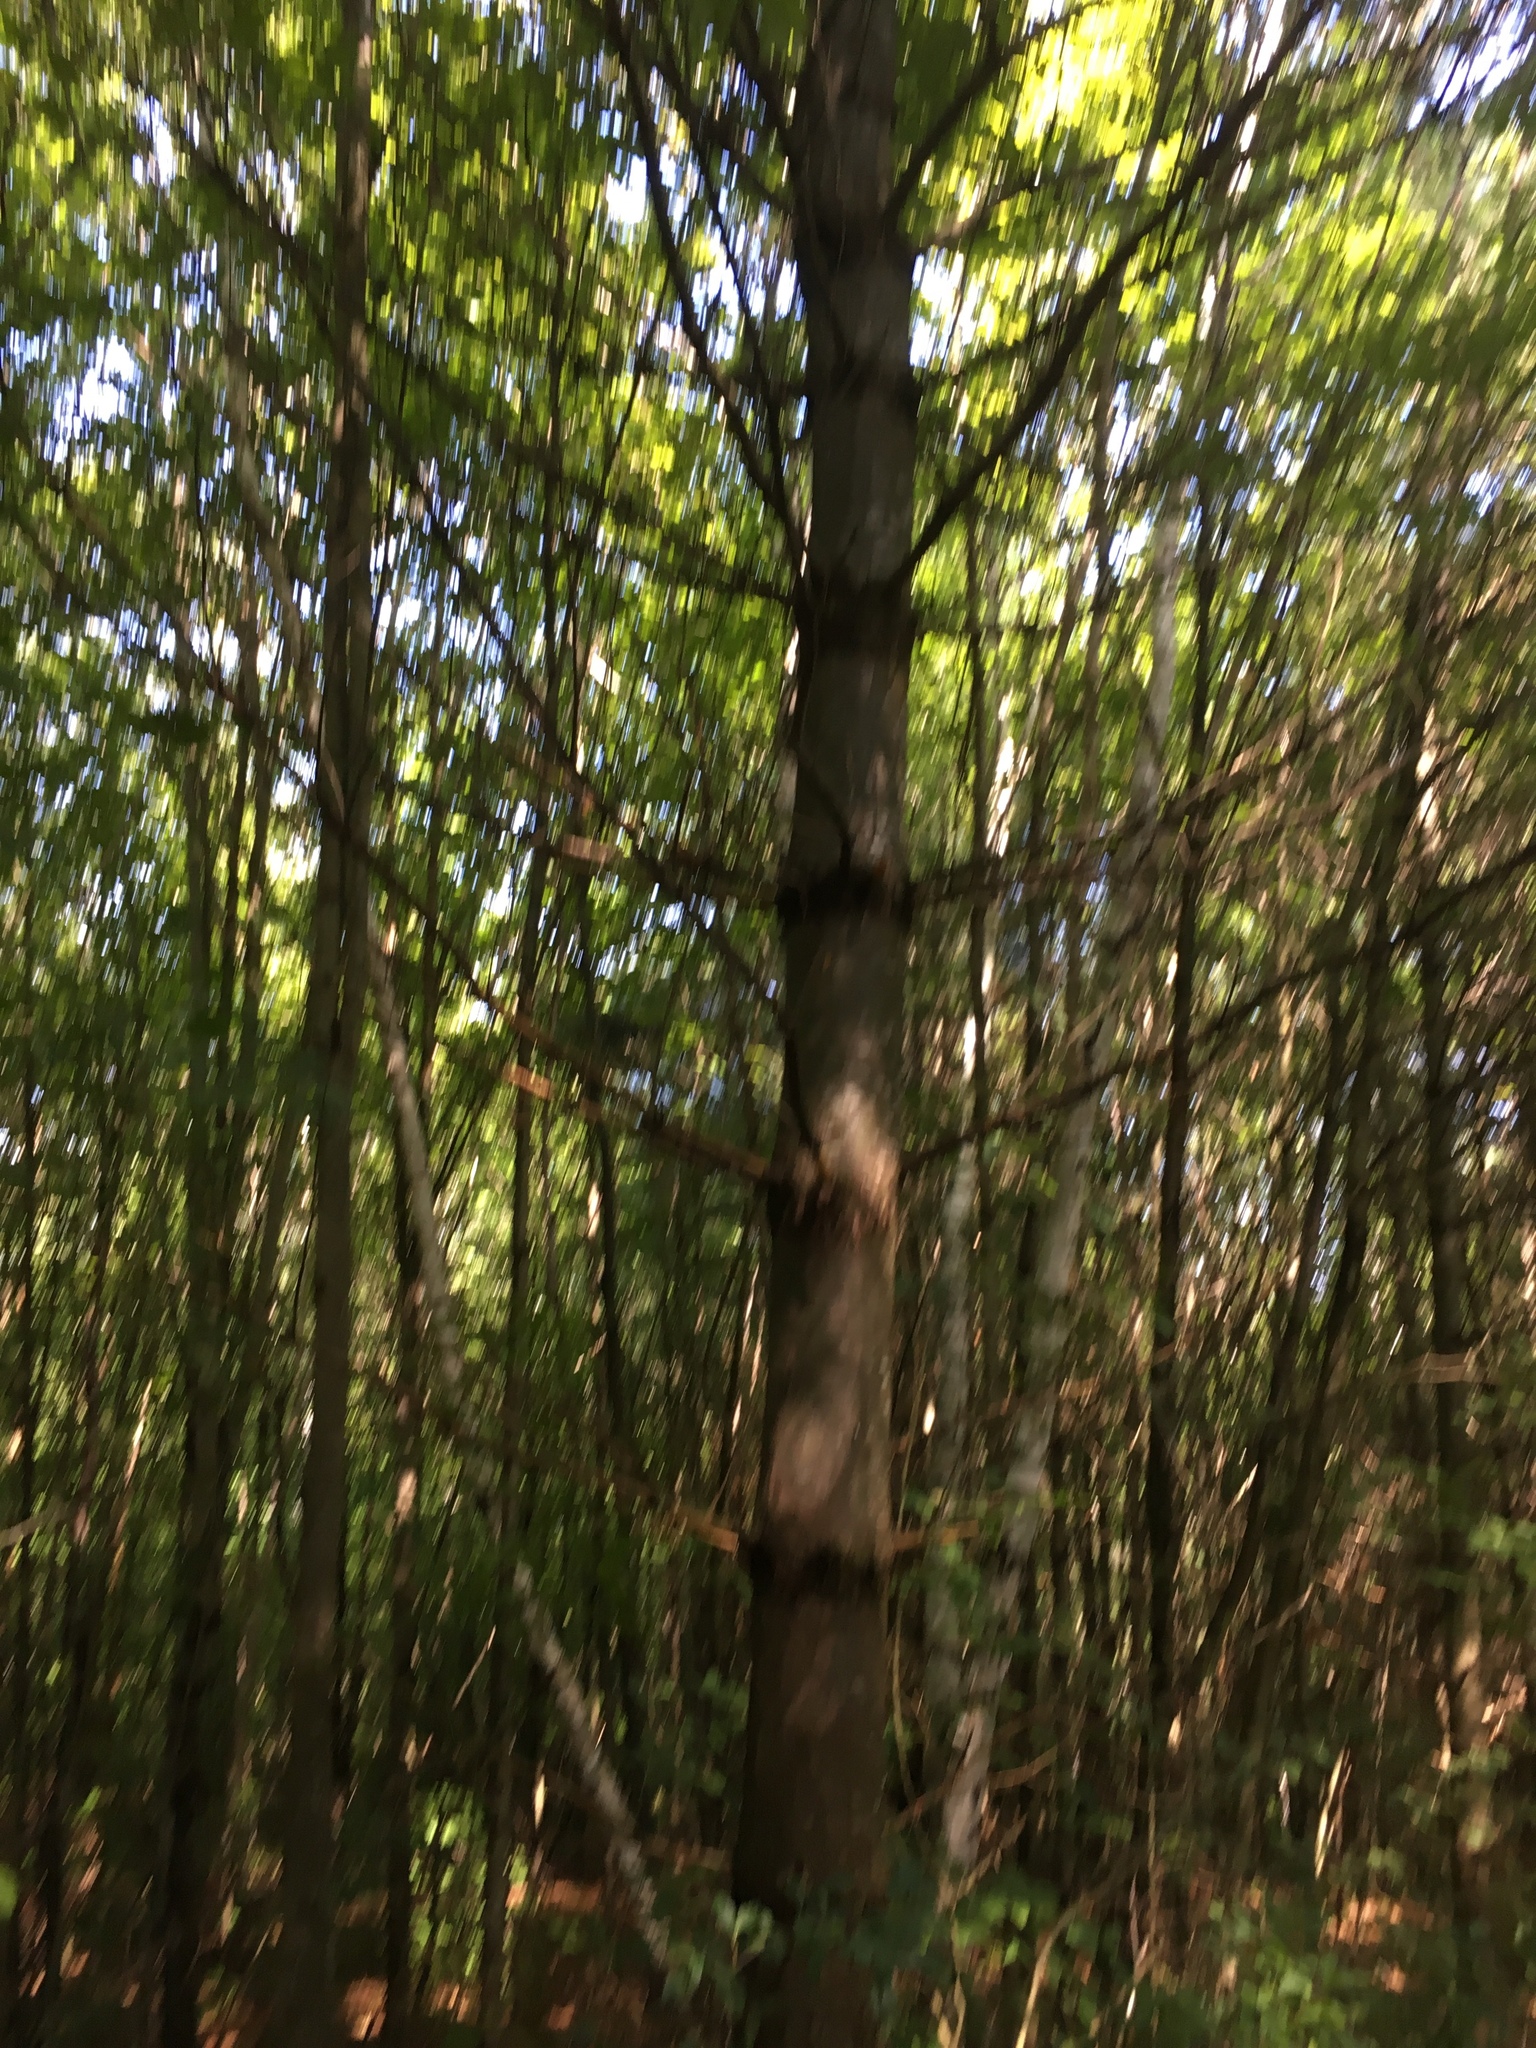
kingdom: Plantae
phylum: Tracheophyta
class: Pinopsida
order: Pinales
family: Pinaceae
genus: Pinus
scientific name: Pinus strobus
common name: Weymouth pine
